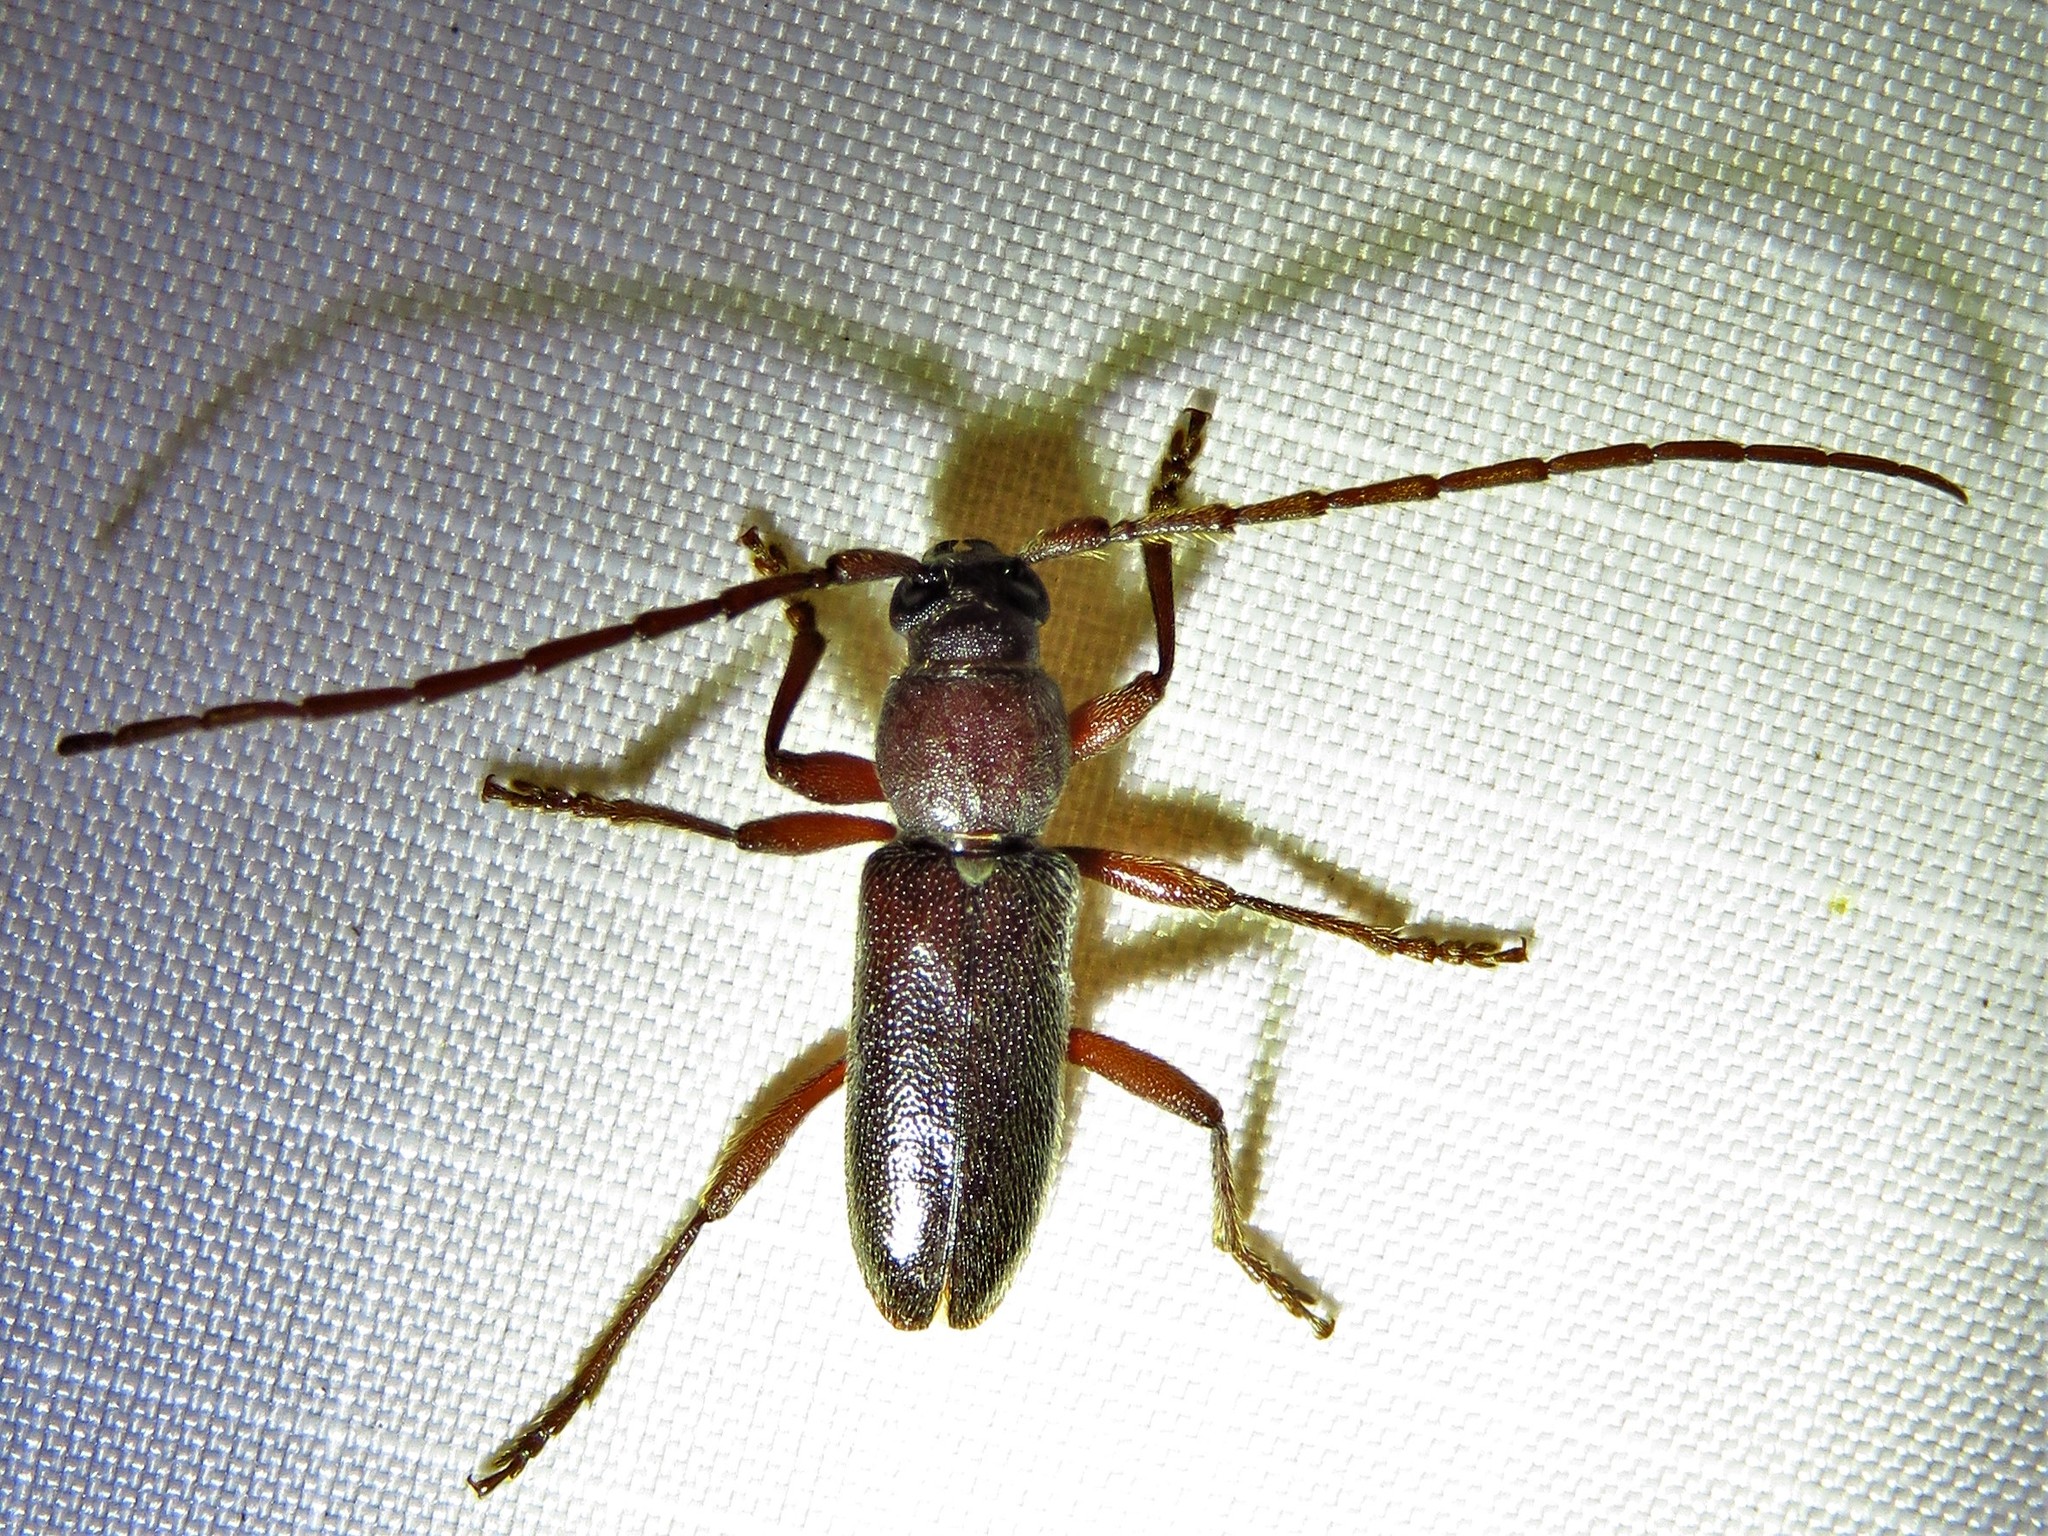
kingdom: Animalia
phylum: Arthropoda
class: Insecta
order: Coleoptera
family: Cerambycidae
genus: Anelaphus
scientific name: Anelaphus moestus
